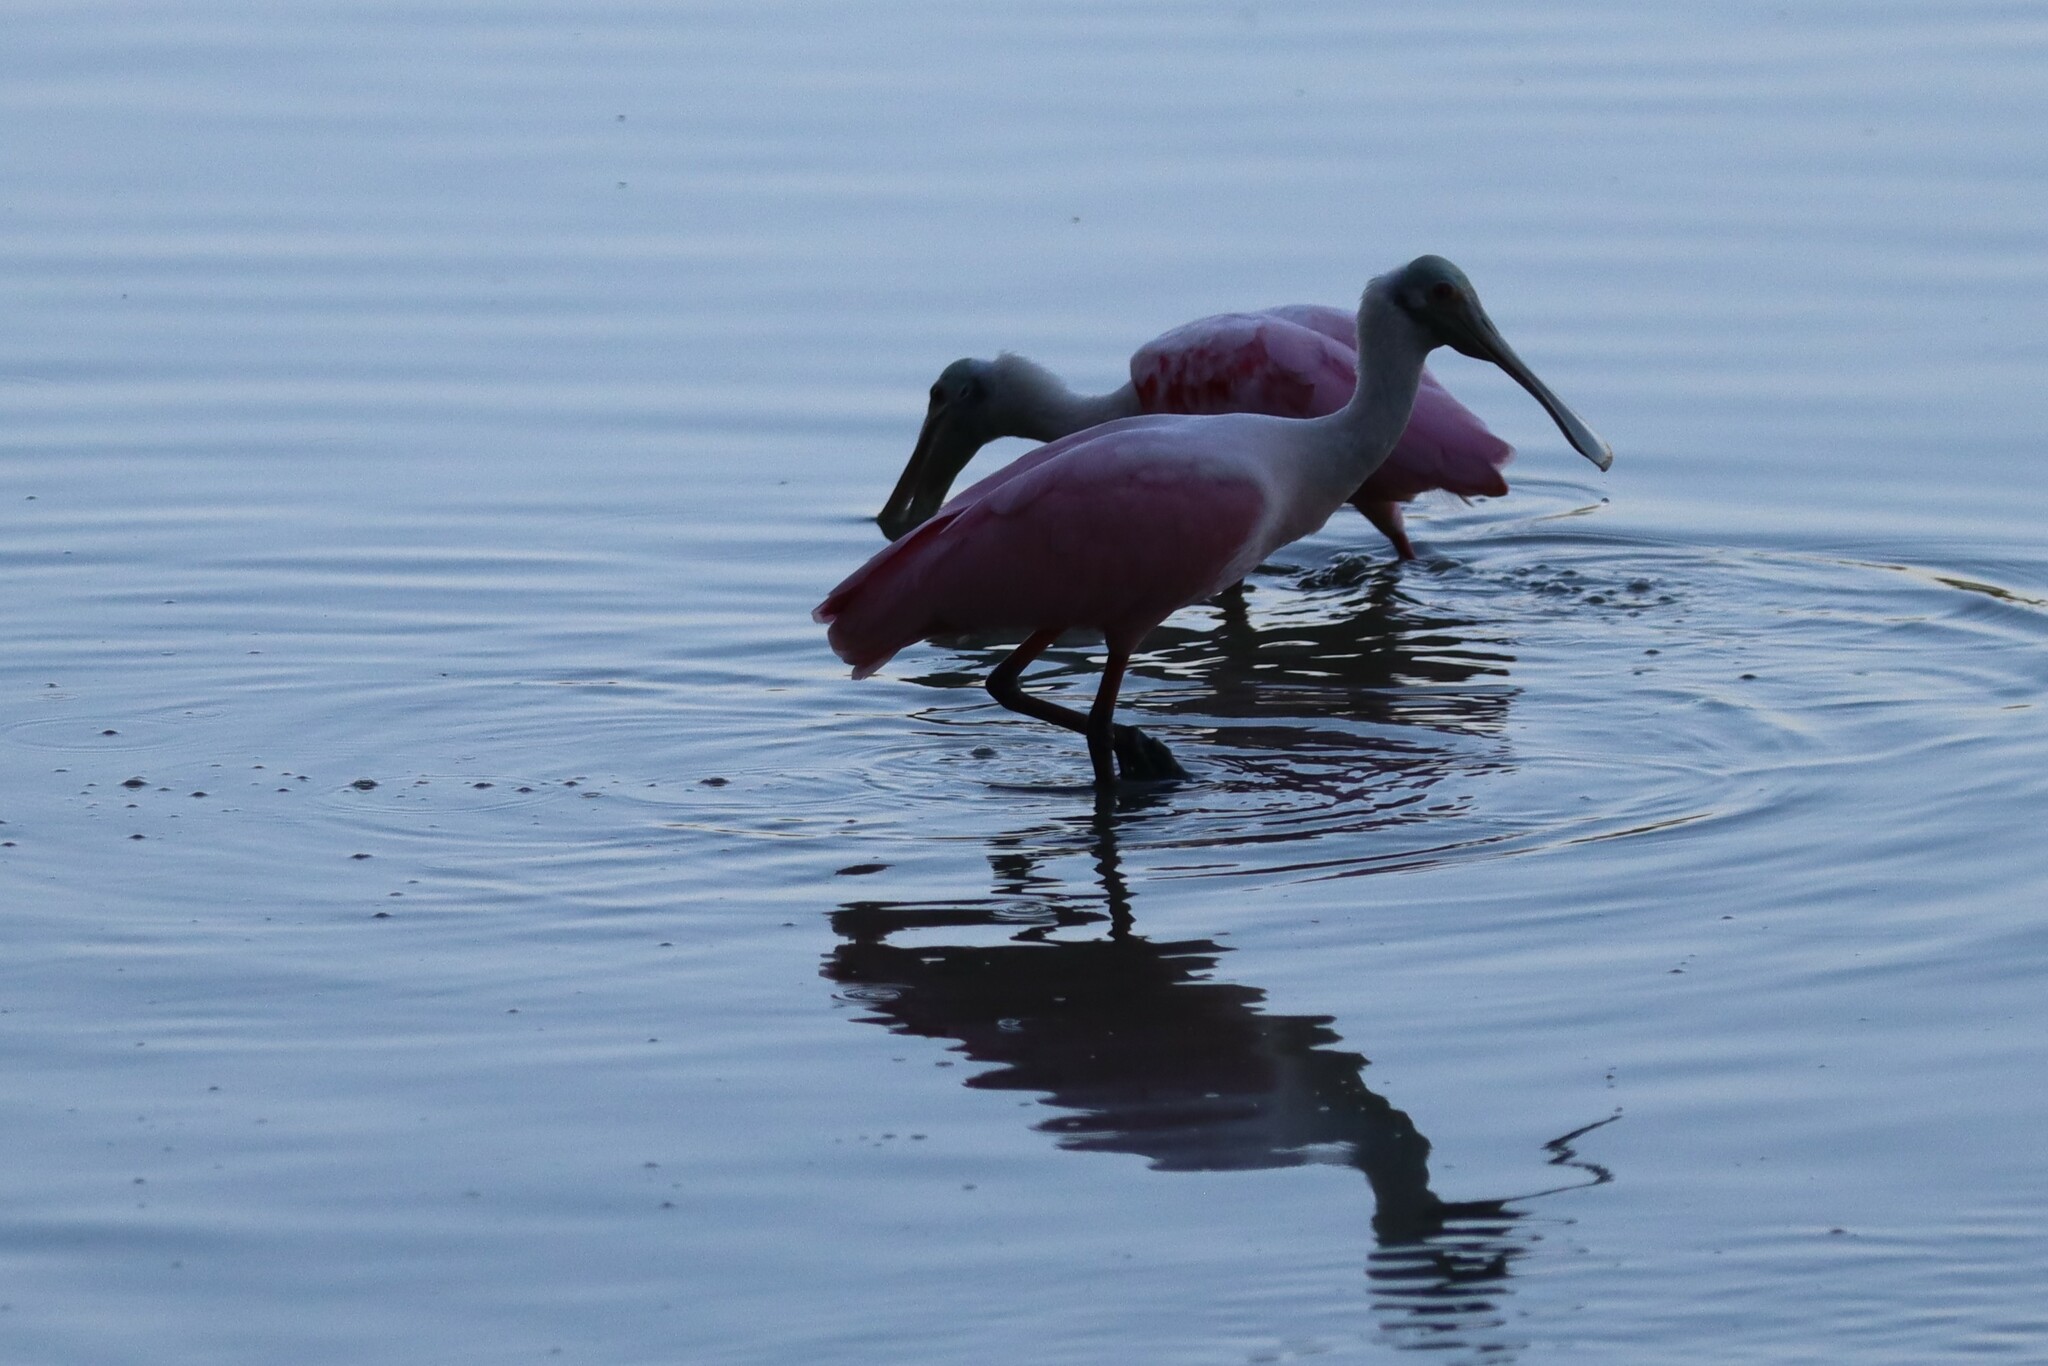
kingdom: Animalia
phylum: Chordata
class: Aves
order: Pelecaniformes
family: Threskiornithidae
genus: Platalea
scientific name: Platalea ajaja
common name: Roseate spoonbill
